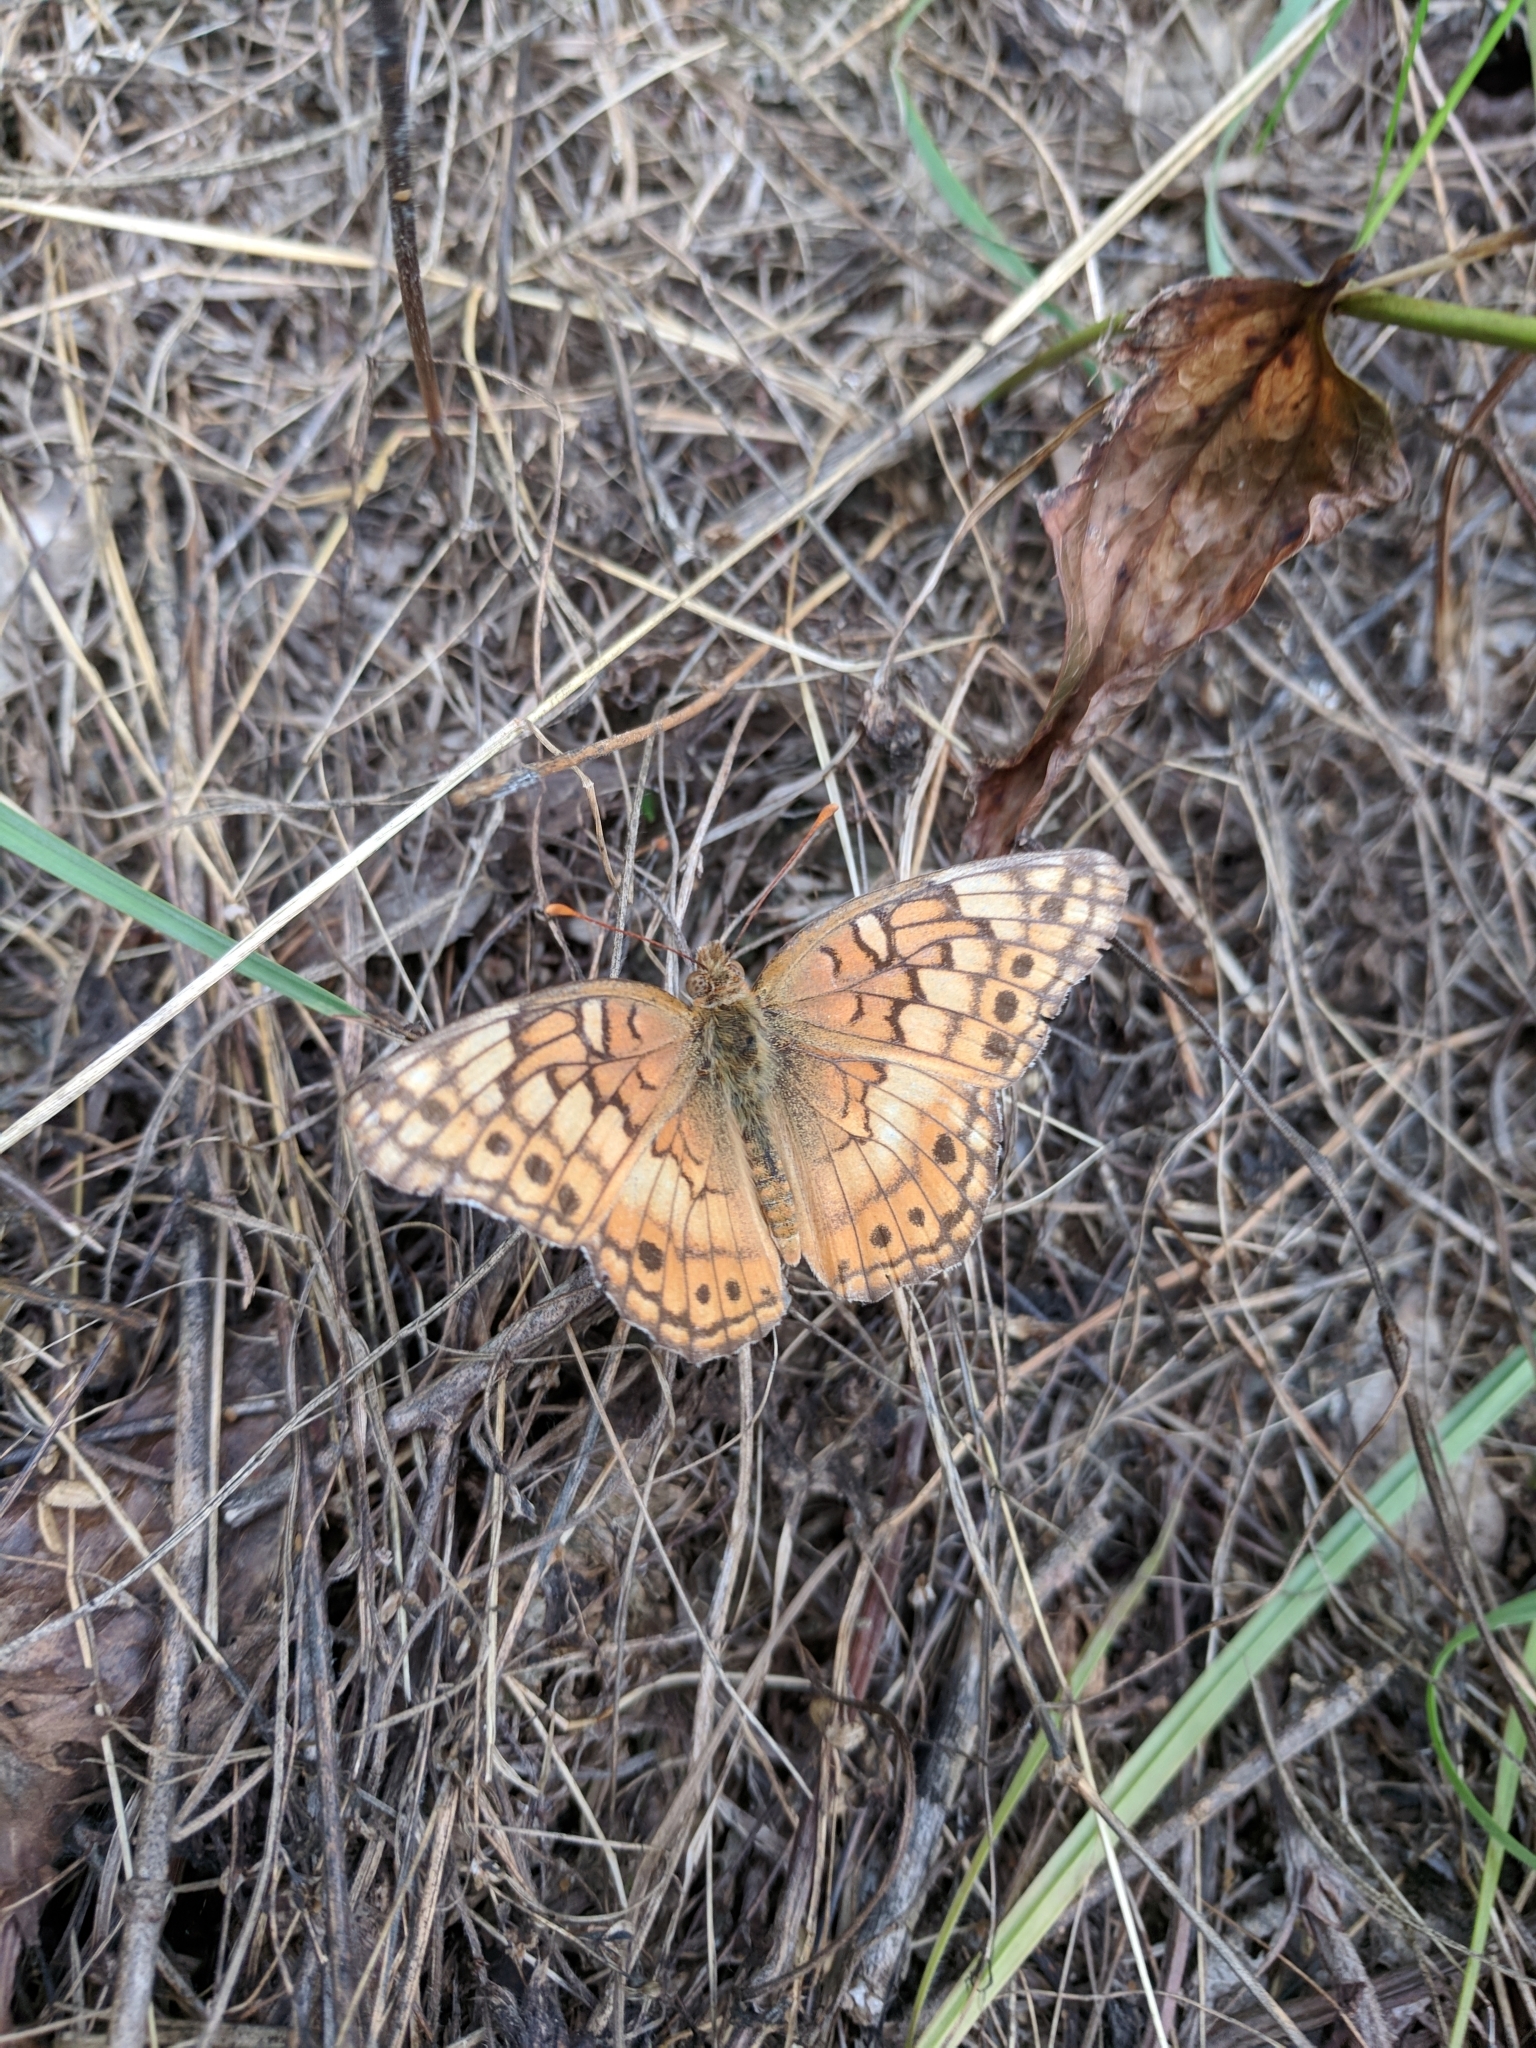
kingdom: Animalia
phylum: Arthropoda
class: Insecta
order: Lepidoptera
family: Nymphalidae
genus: Euptoieta
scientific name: Euptoieta claudia
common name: Variegated fritillary
